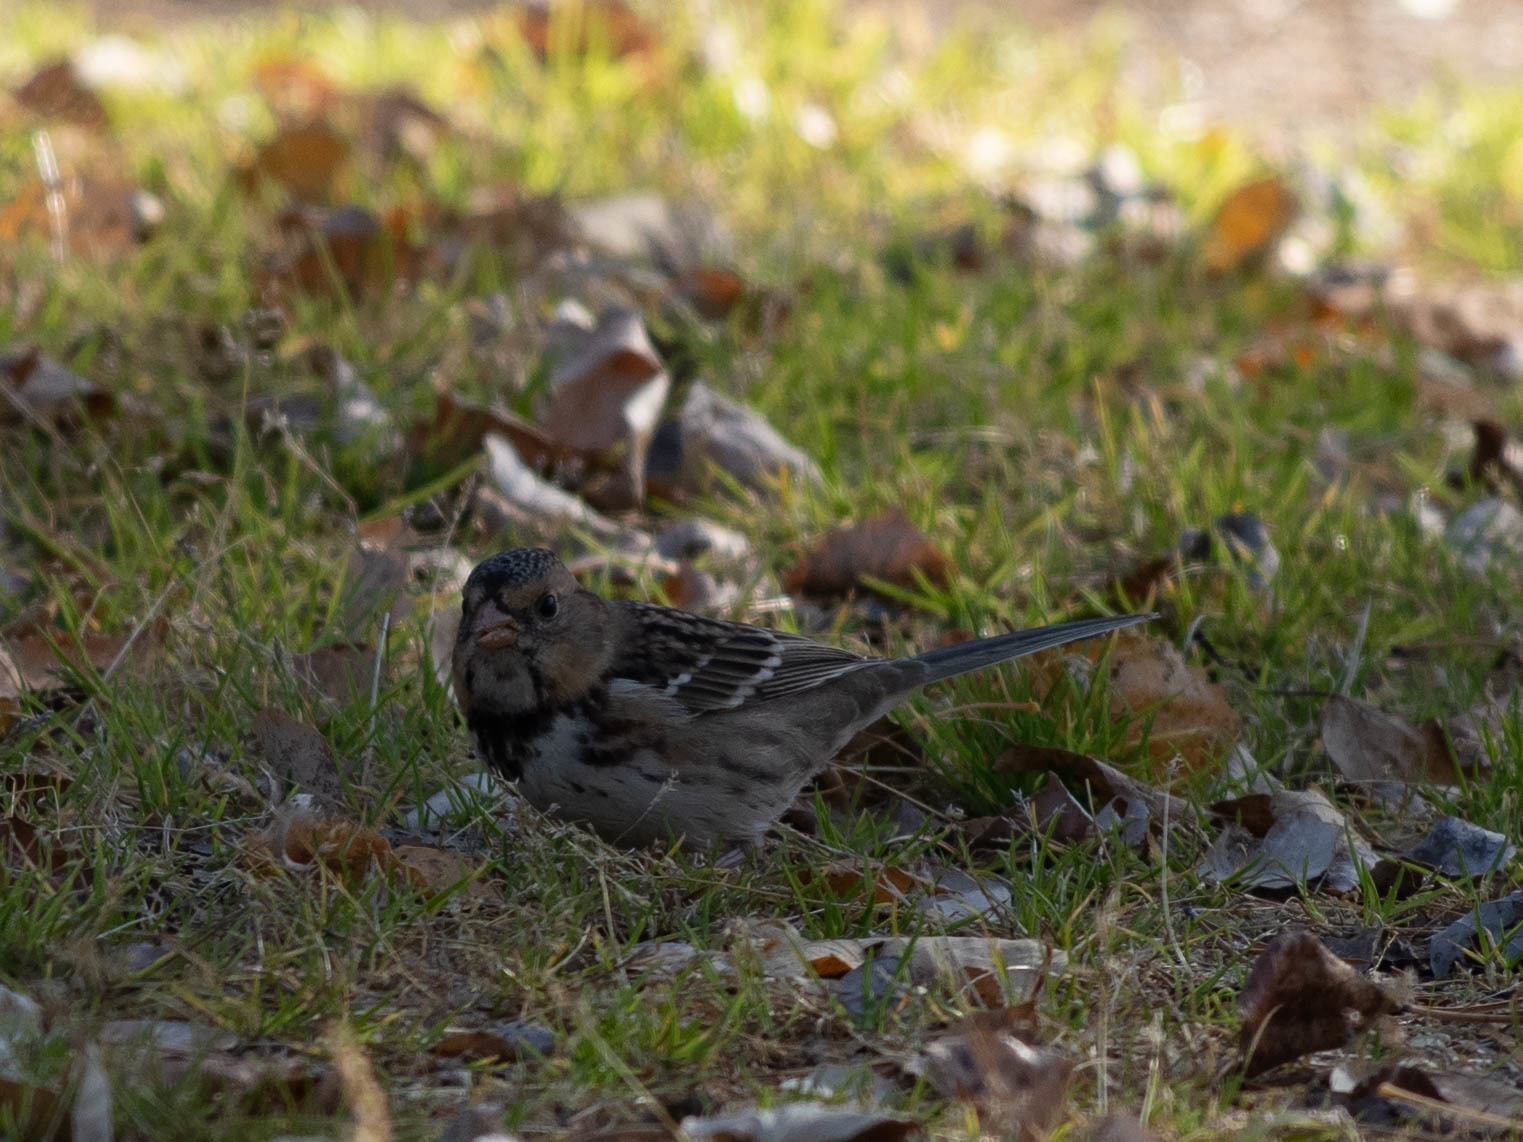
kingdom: Animalia
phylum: Chordata
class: Aves
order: Passeriformes
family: Passerellidae
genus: Zonotrichia
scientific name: Zonotrichia querula
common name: Harris's sparrow
